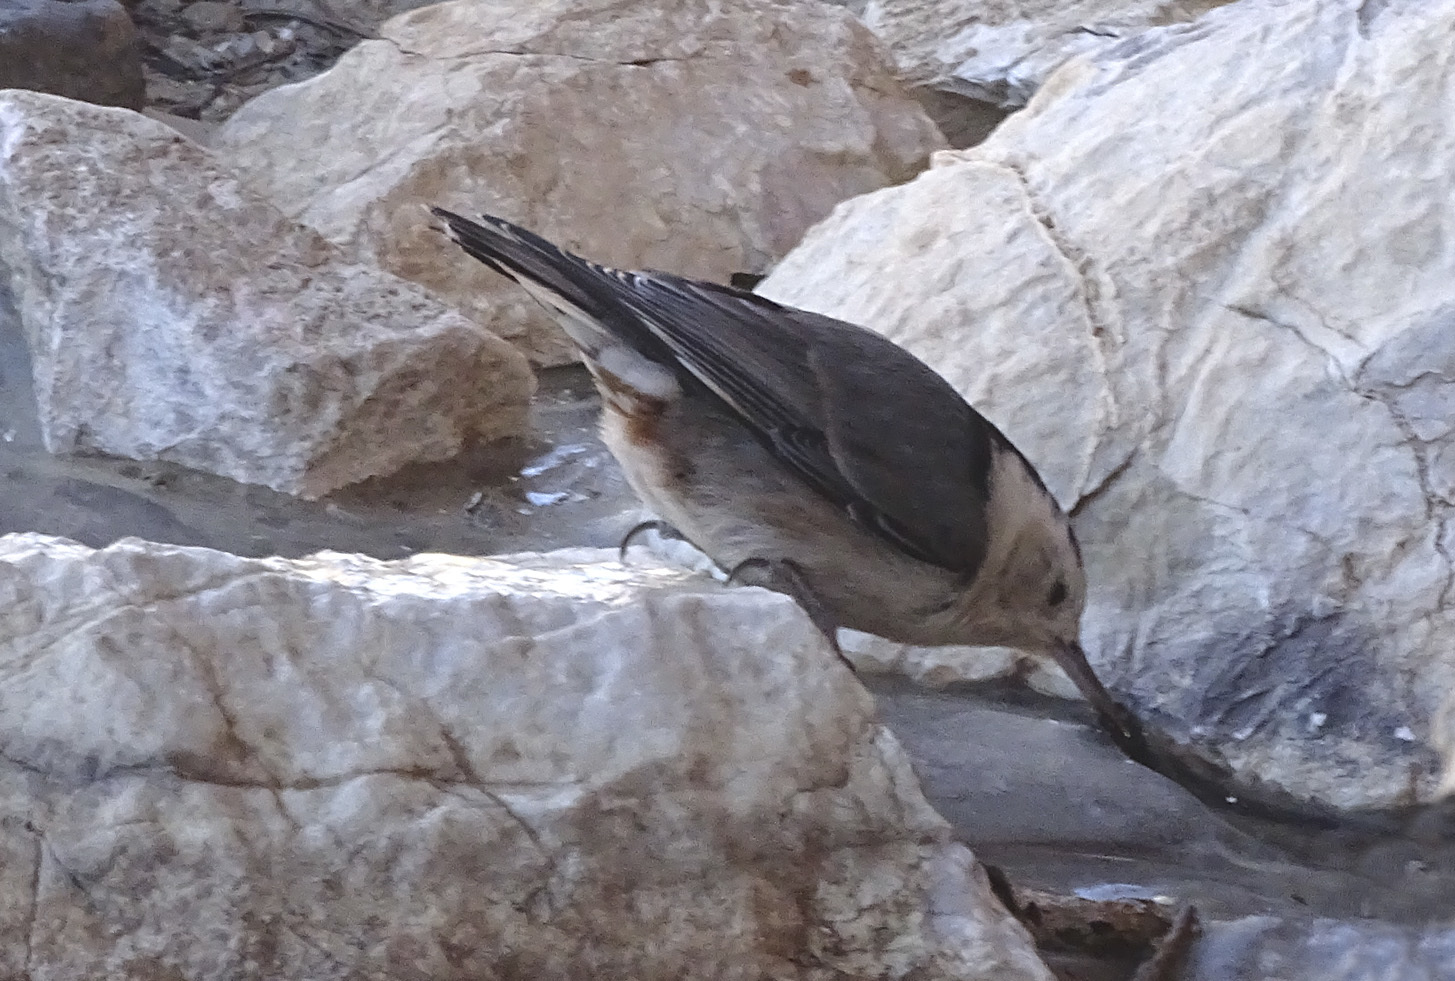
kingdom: Animalia
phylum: Chordata
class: Aves
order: Passeriformes
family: Sittidae
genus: Sitta
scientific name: Sitta carolinensis
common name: White-breasted nuthatch
